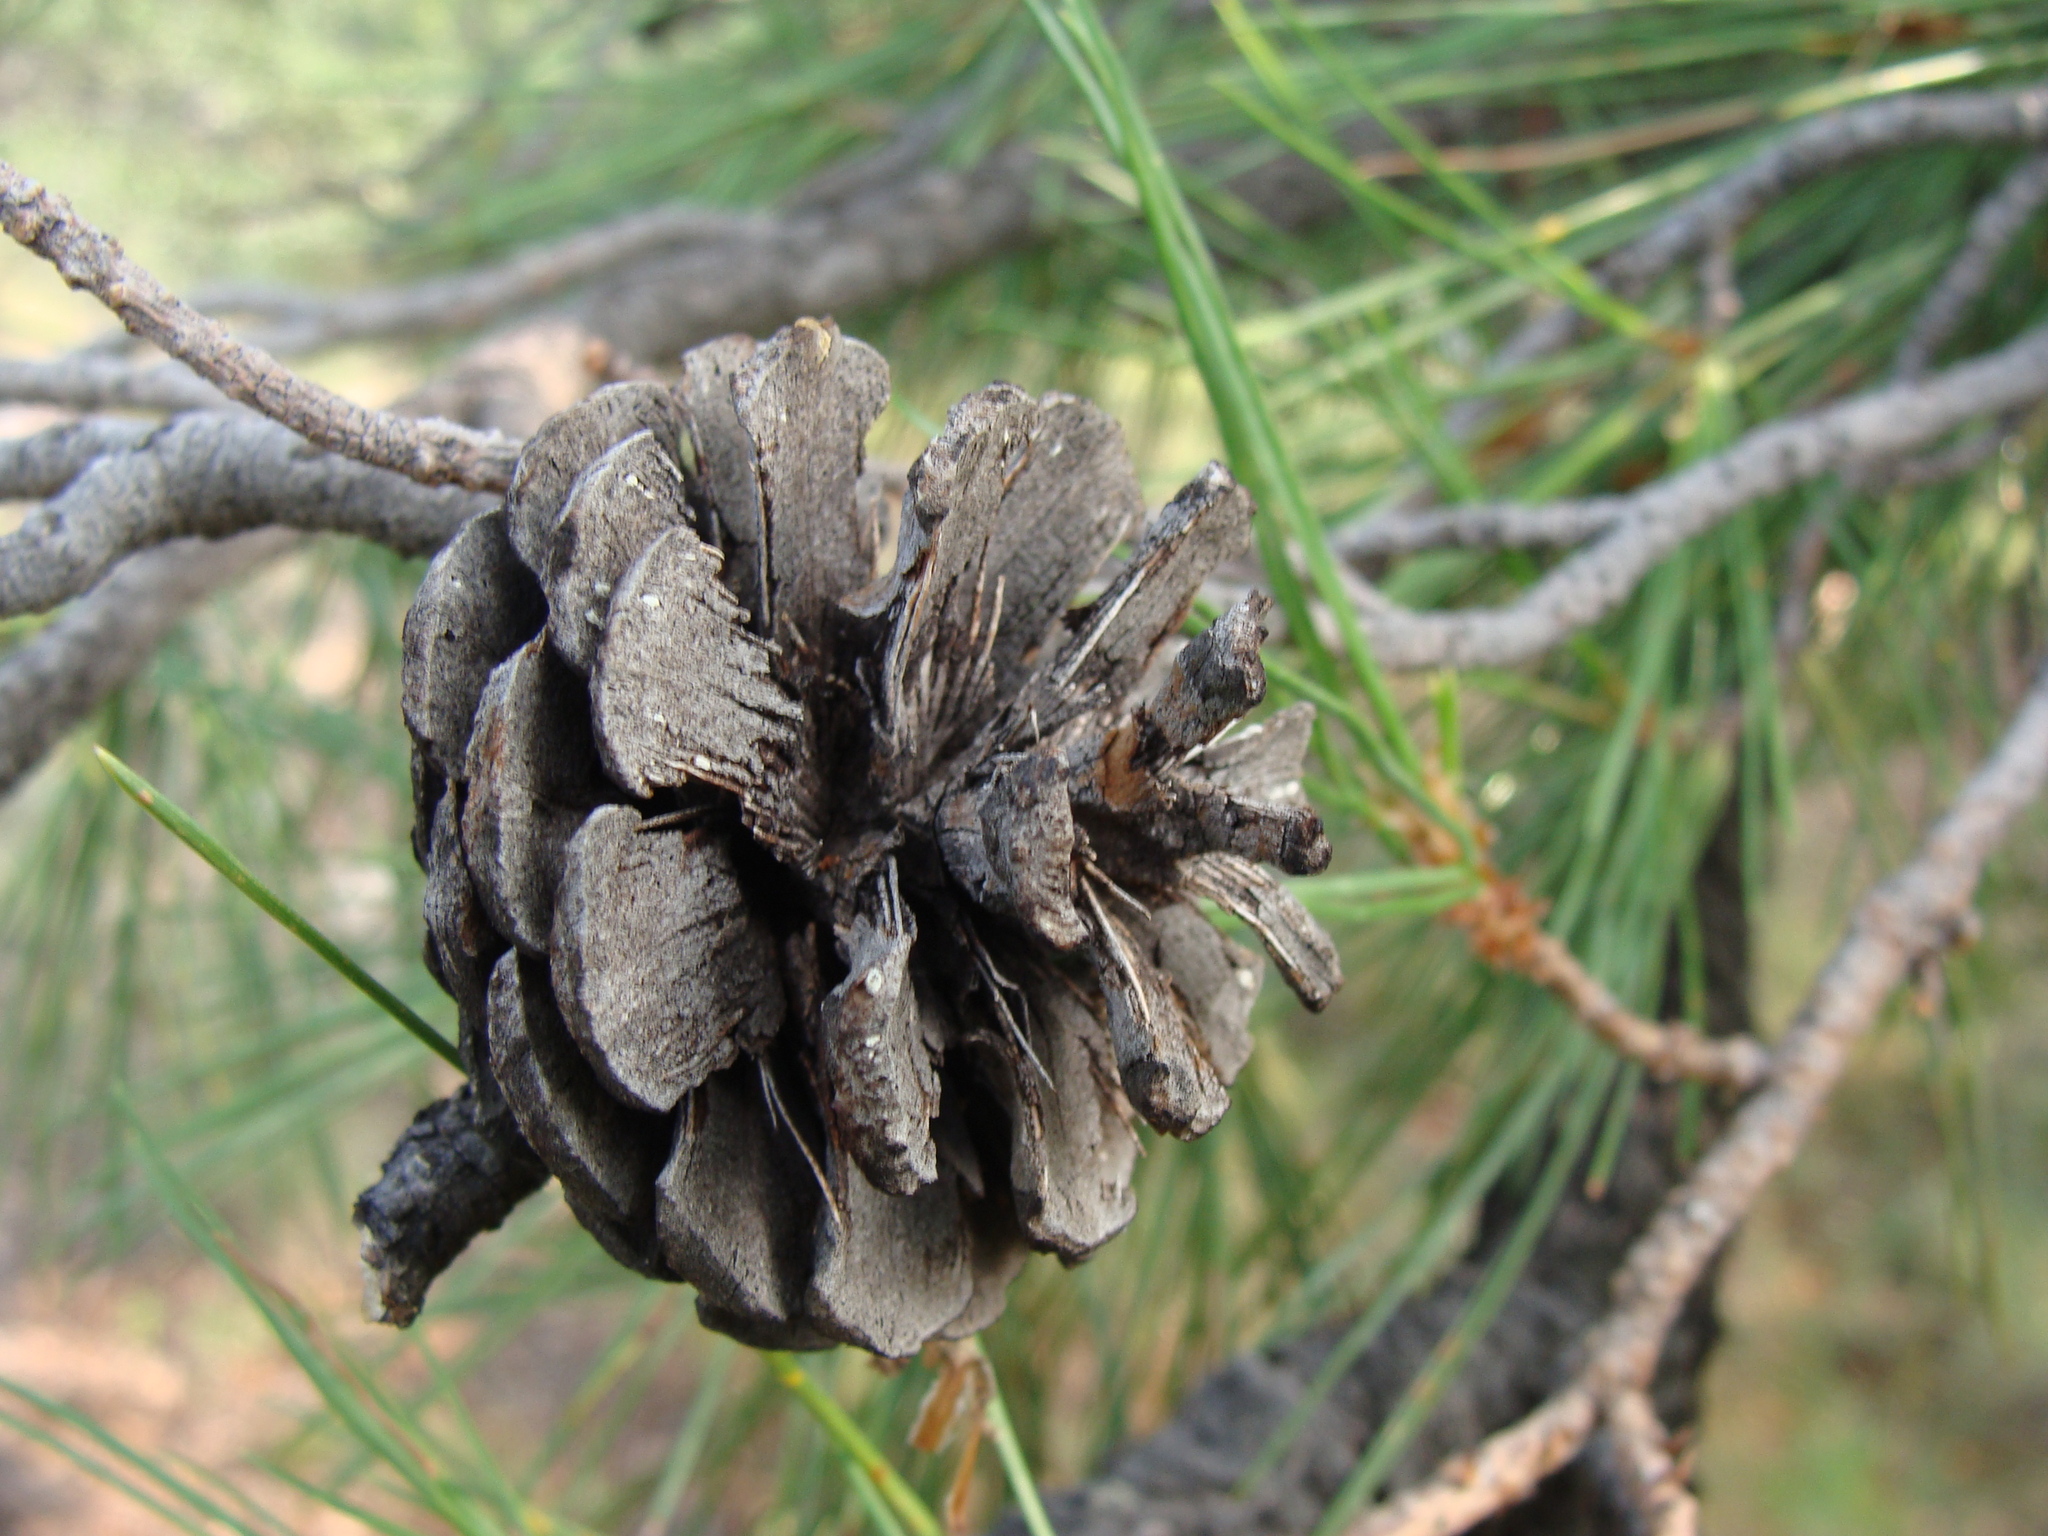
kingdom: Plantae
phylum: Tracheophyta
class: Pinopsida
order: Pinales
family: Pinaceae
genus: Pinus
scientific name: Pinus leiophylla
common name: Chihuahua pine
